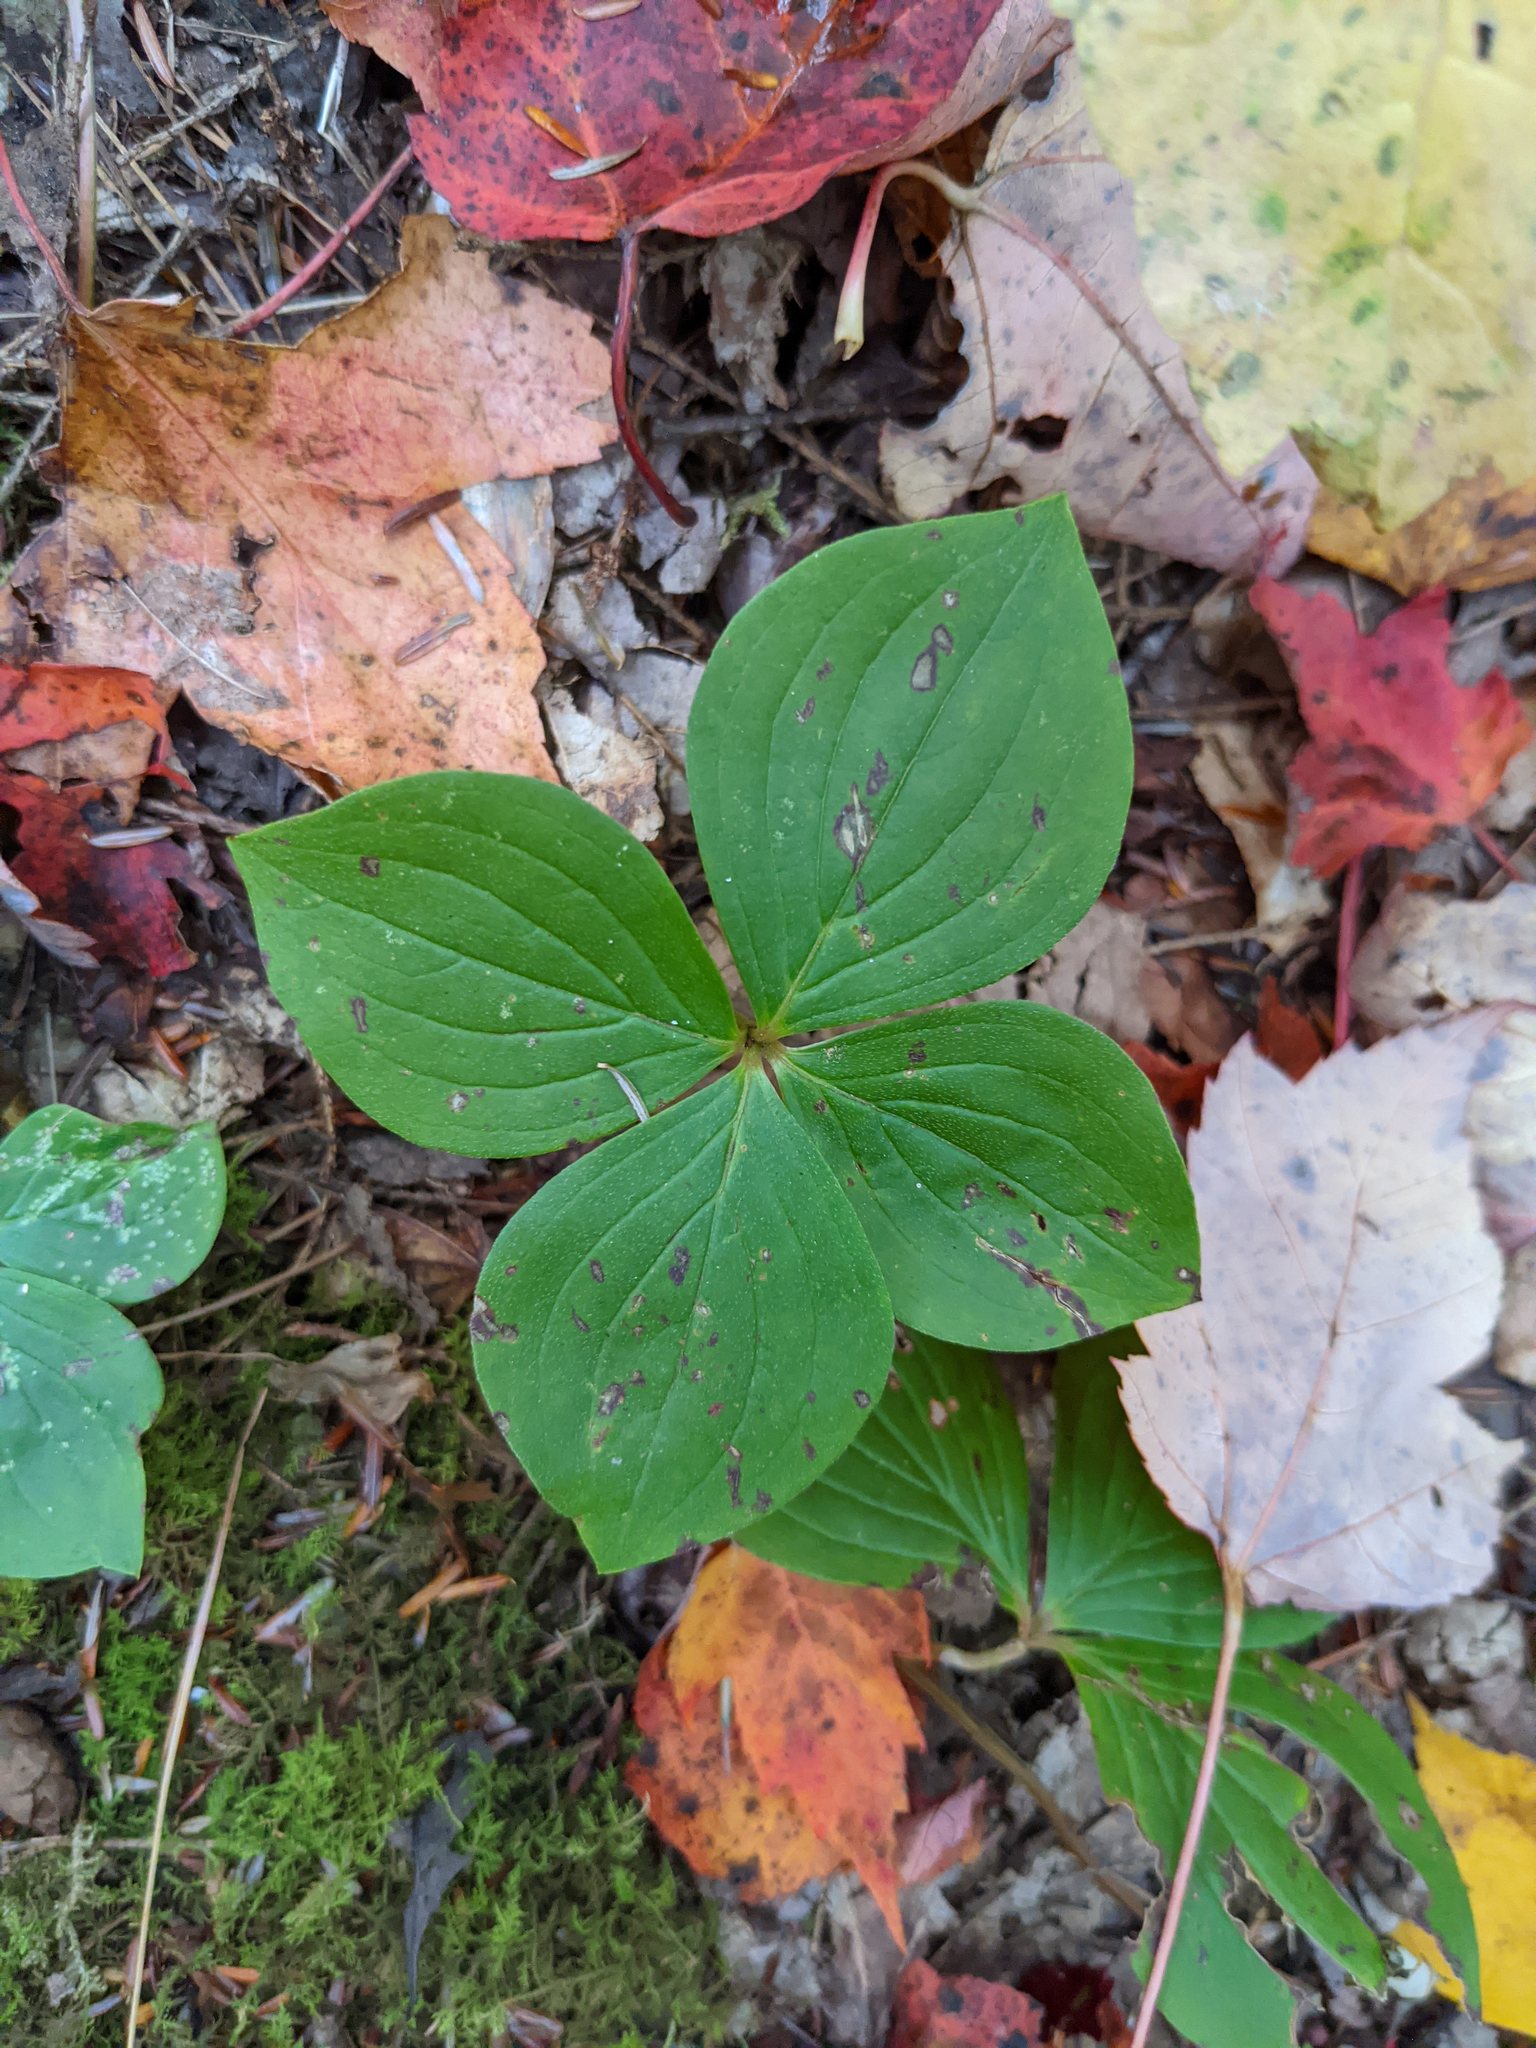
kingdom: Plantae
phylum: Tracheophyta
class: Magnoliopsida
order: Cornales
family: Cornaceae
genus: Cornus
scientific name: Cornus canadensis
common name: Creeping dogwood
